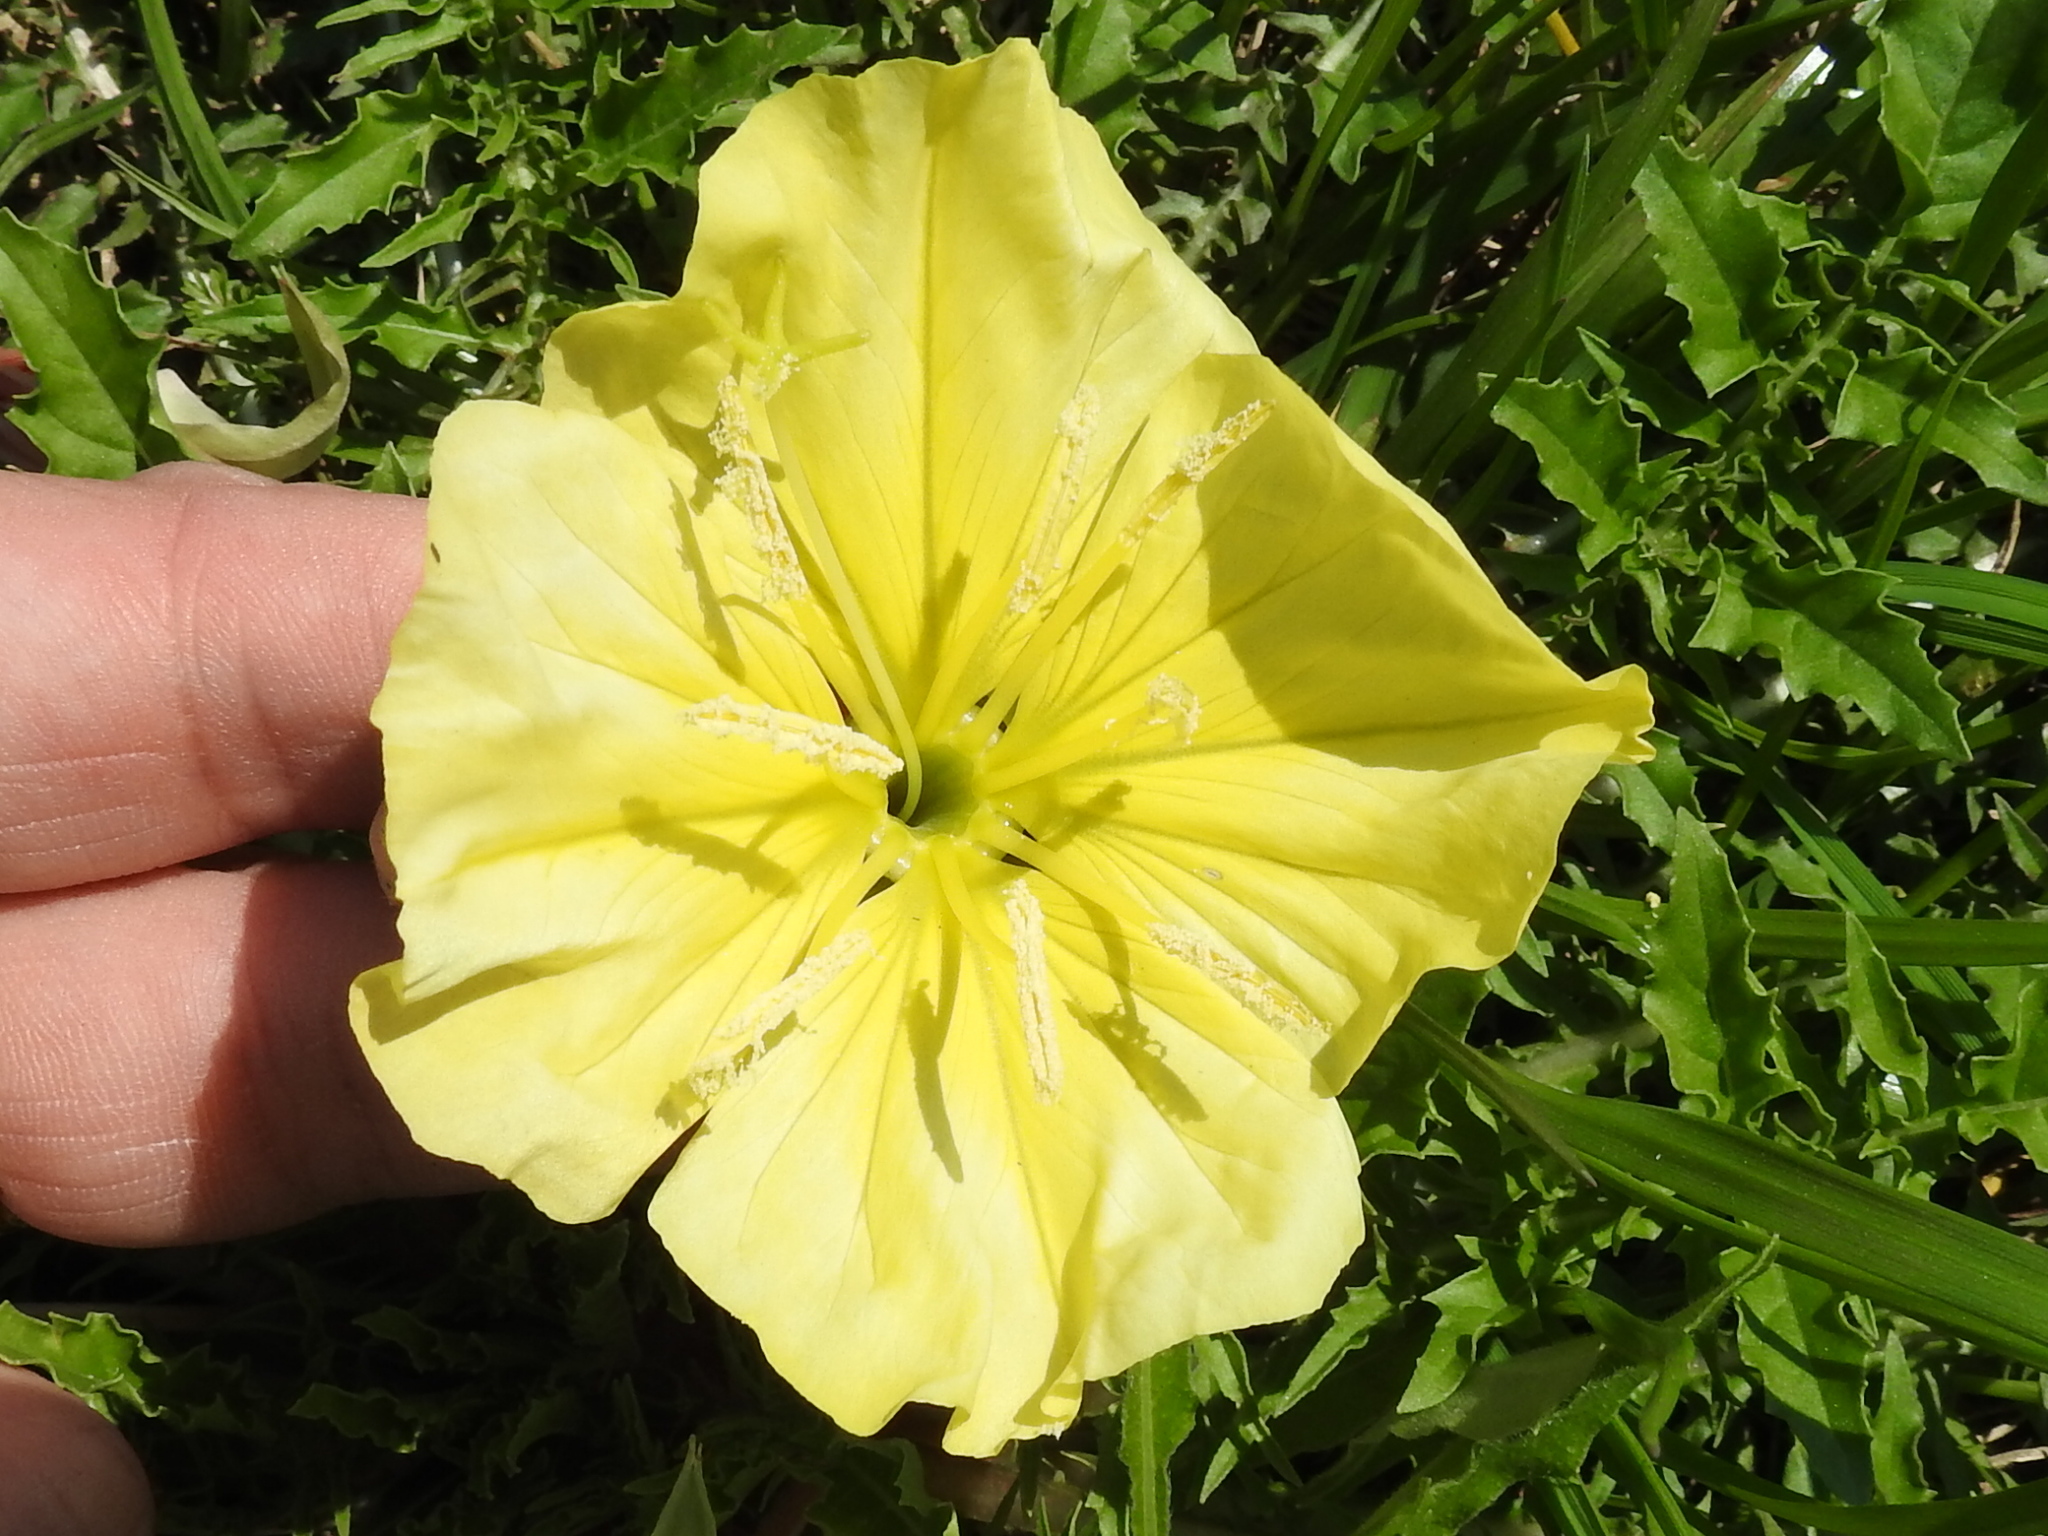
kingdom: Plantae
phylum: Tracheophyta
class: Magnoliopsida
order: Myrtales
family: Onagraceae
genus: Oenothera
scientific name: Oenothera triloba
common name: Sessile evening-primrose
